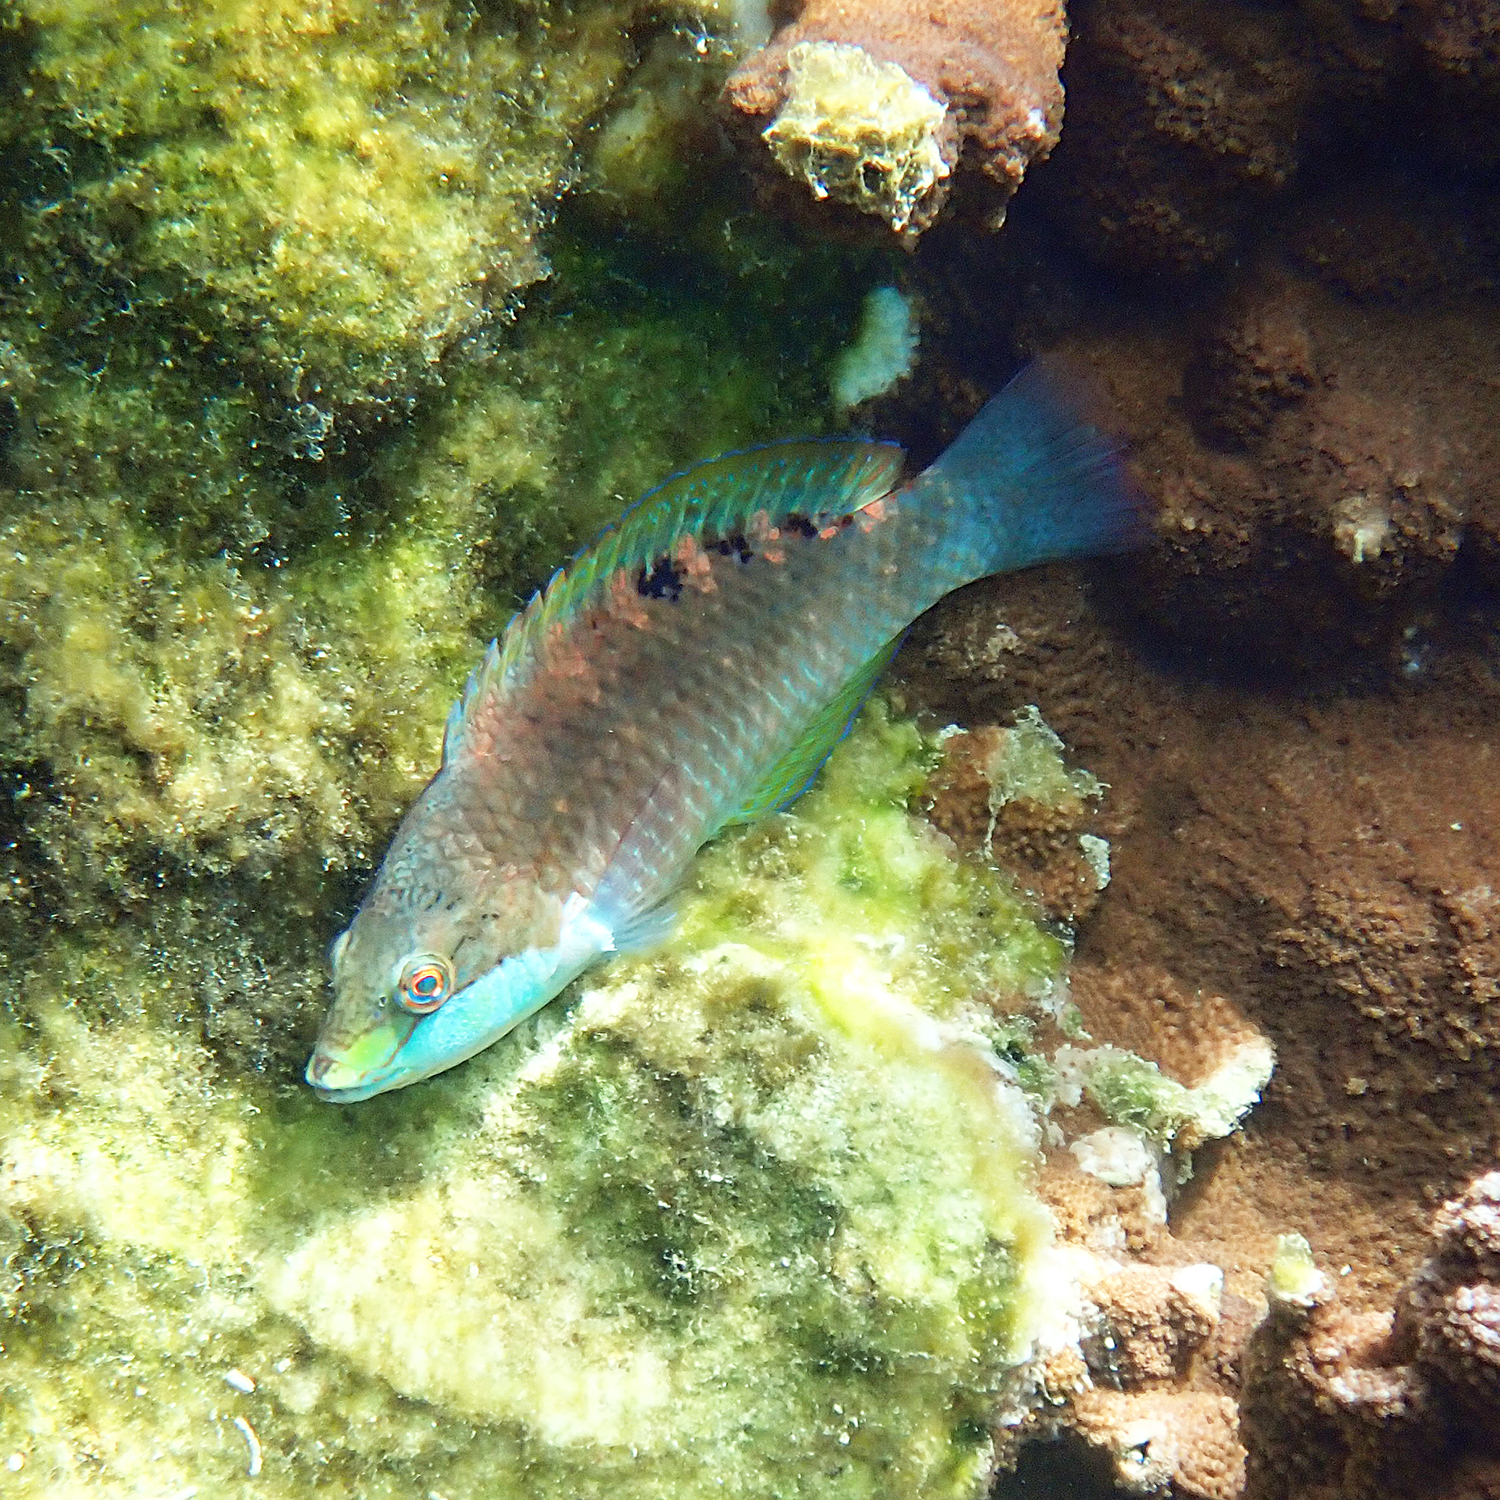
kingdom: Animalia
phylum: Chordata
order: Perciformes
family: Labridae
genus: Pseudolabrus
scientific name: Pseudolabrus luculentus
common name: Luculentus wrasse
